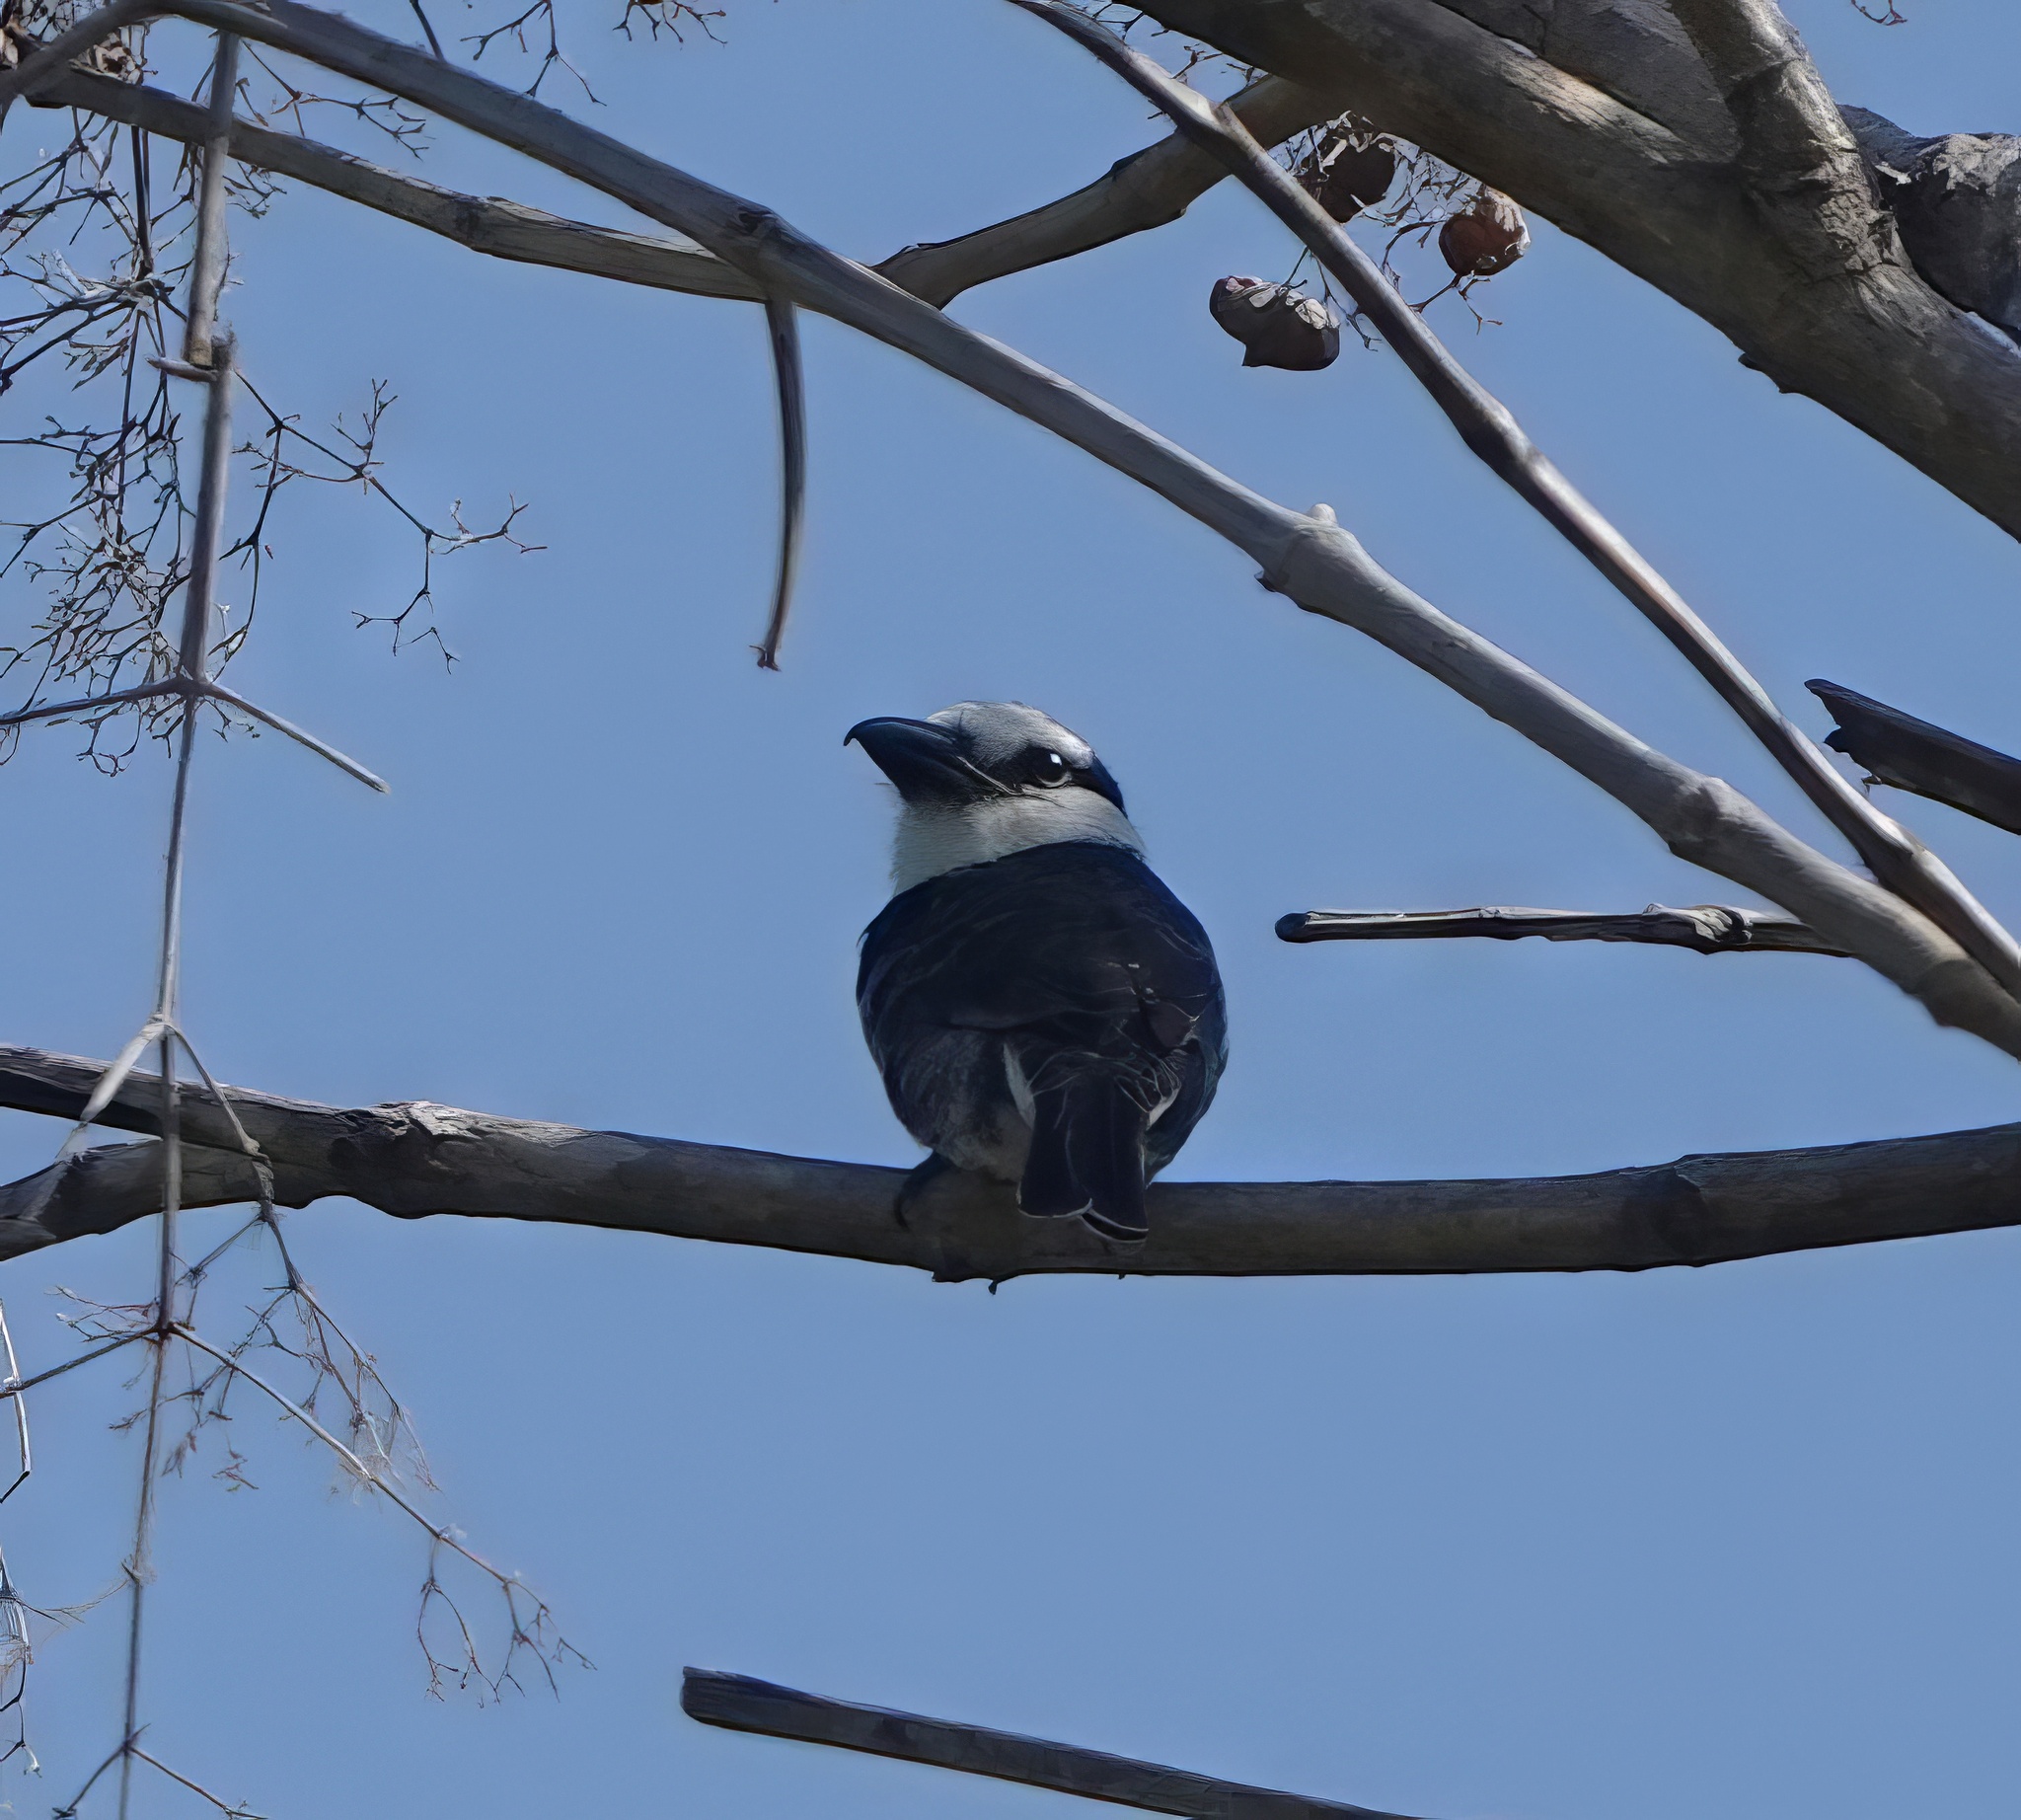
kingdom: Animalia
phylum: Chordata
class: Aves
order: Piciformes
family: Bucconidae
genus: Notharchus
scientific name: Notharchus hyperrhynchus
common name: White-necked puffbird
